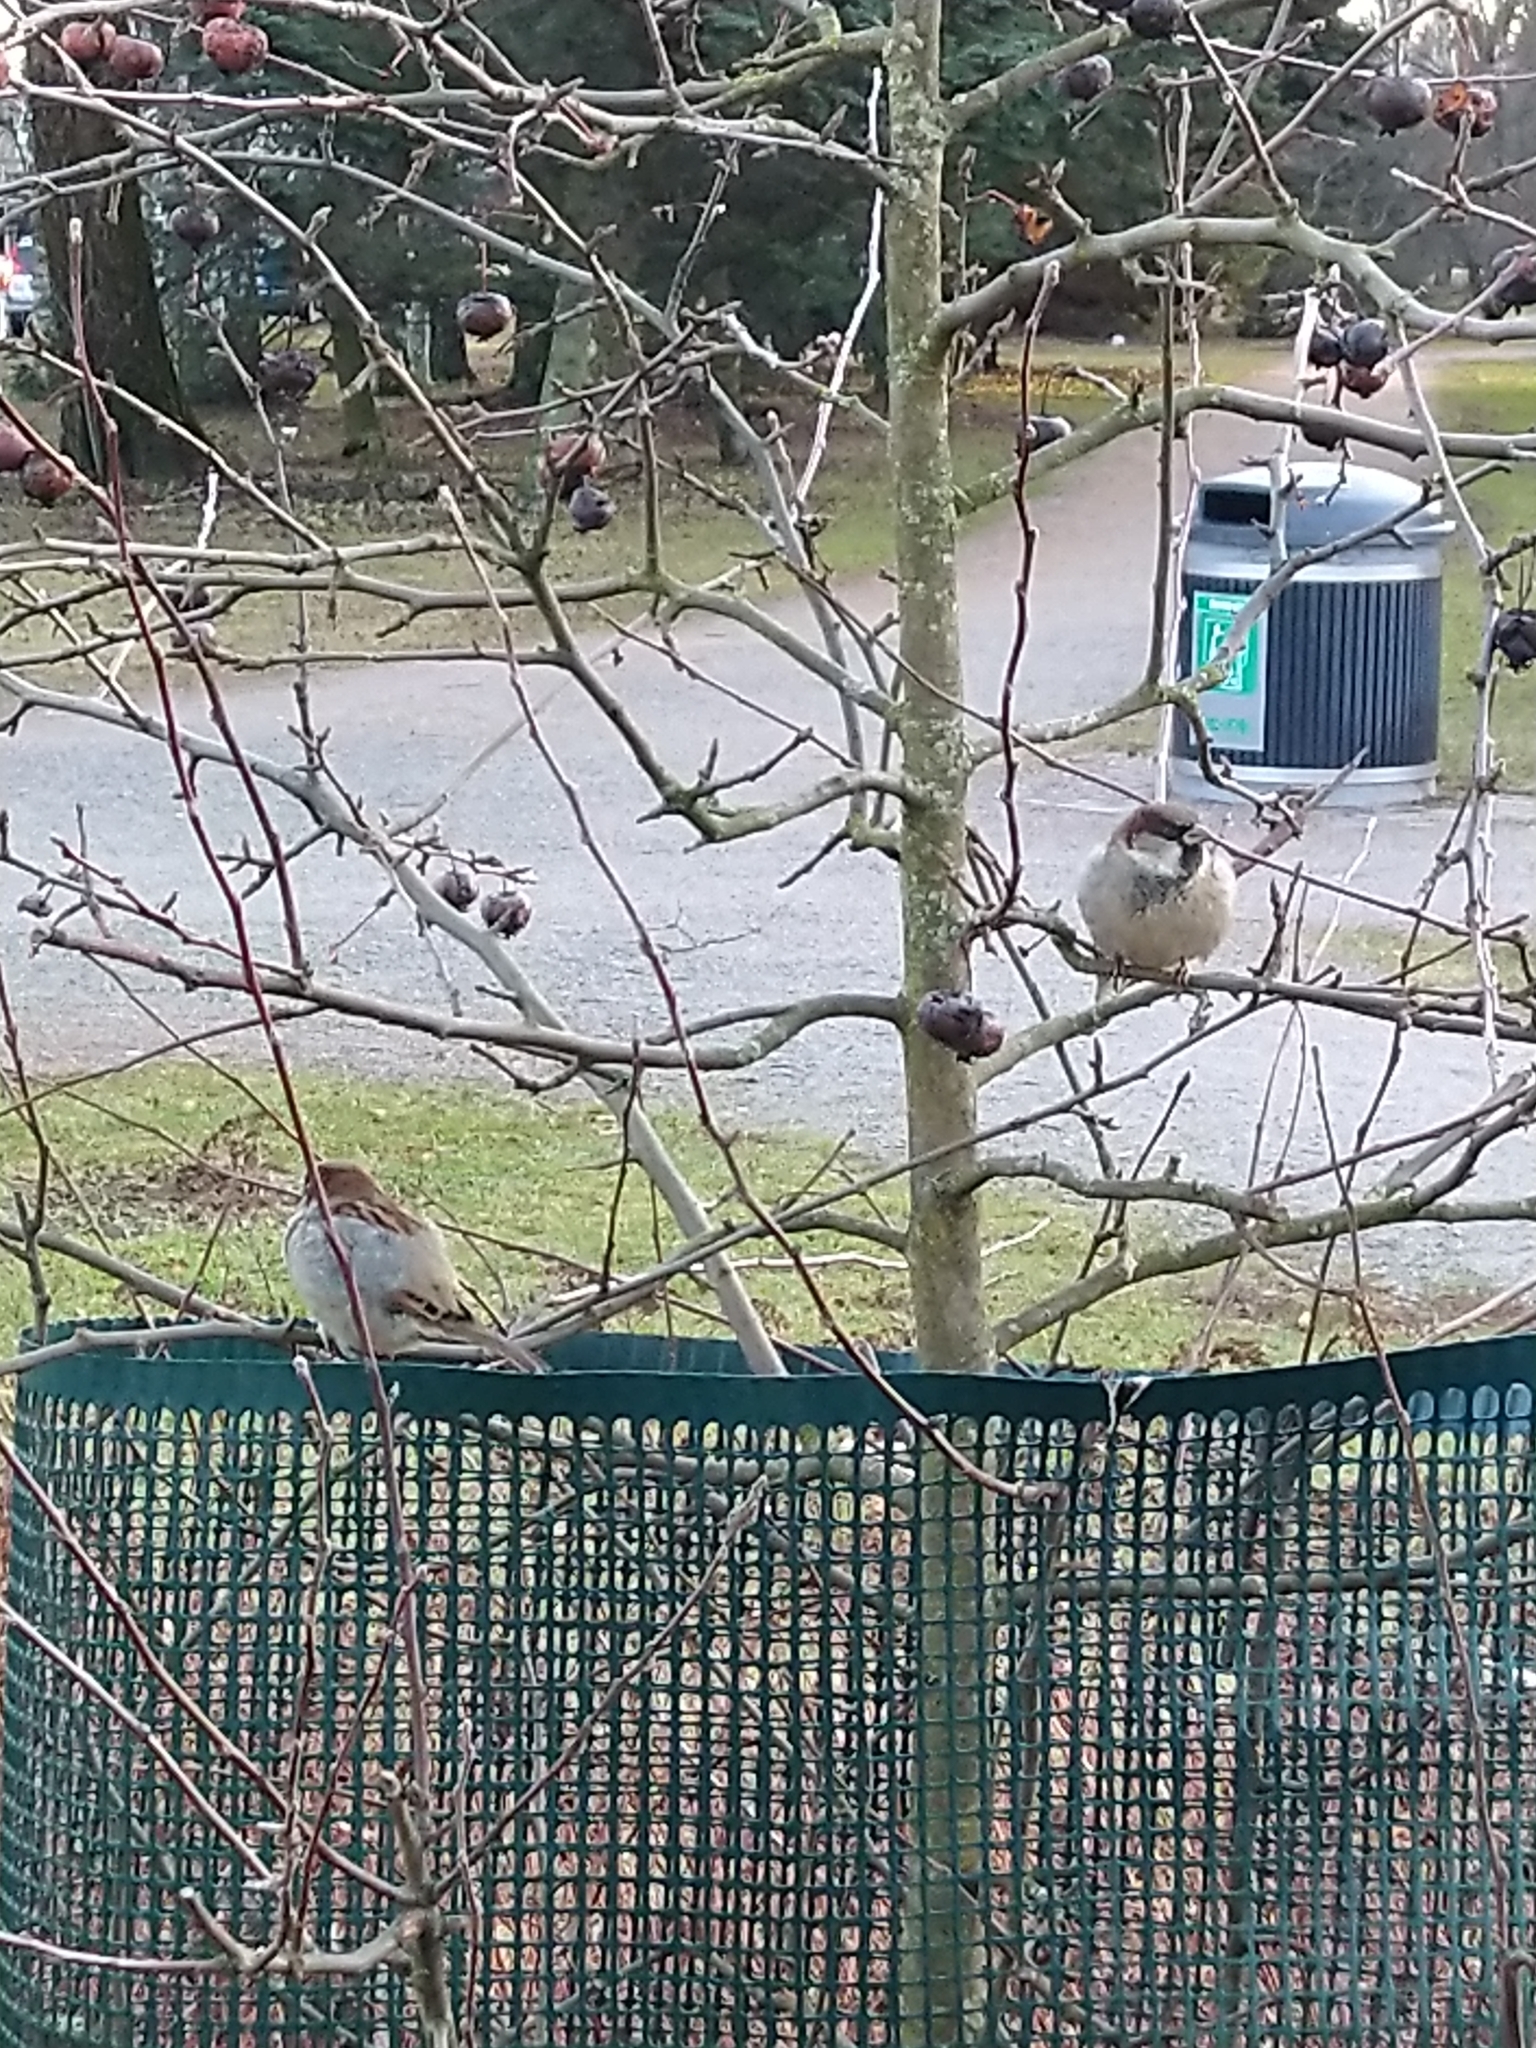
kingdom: Animalia
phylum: Chordata
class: Aves
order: Passeriformes
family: Passeridae
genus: Passer
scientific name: Passer domesticus
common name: House sparrow
